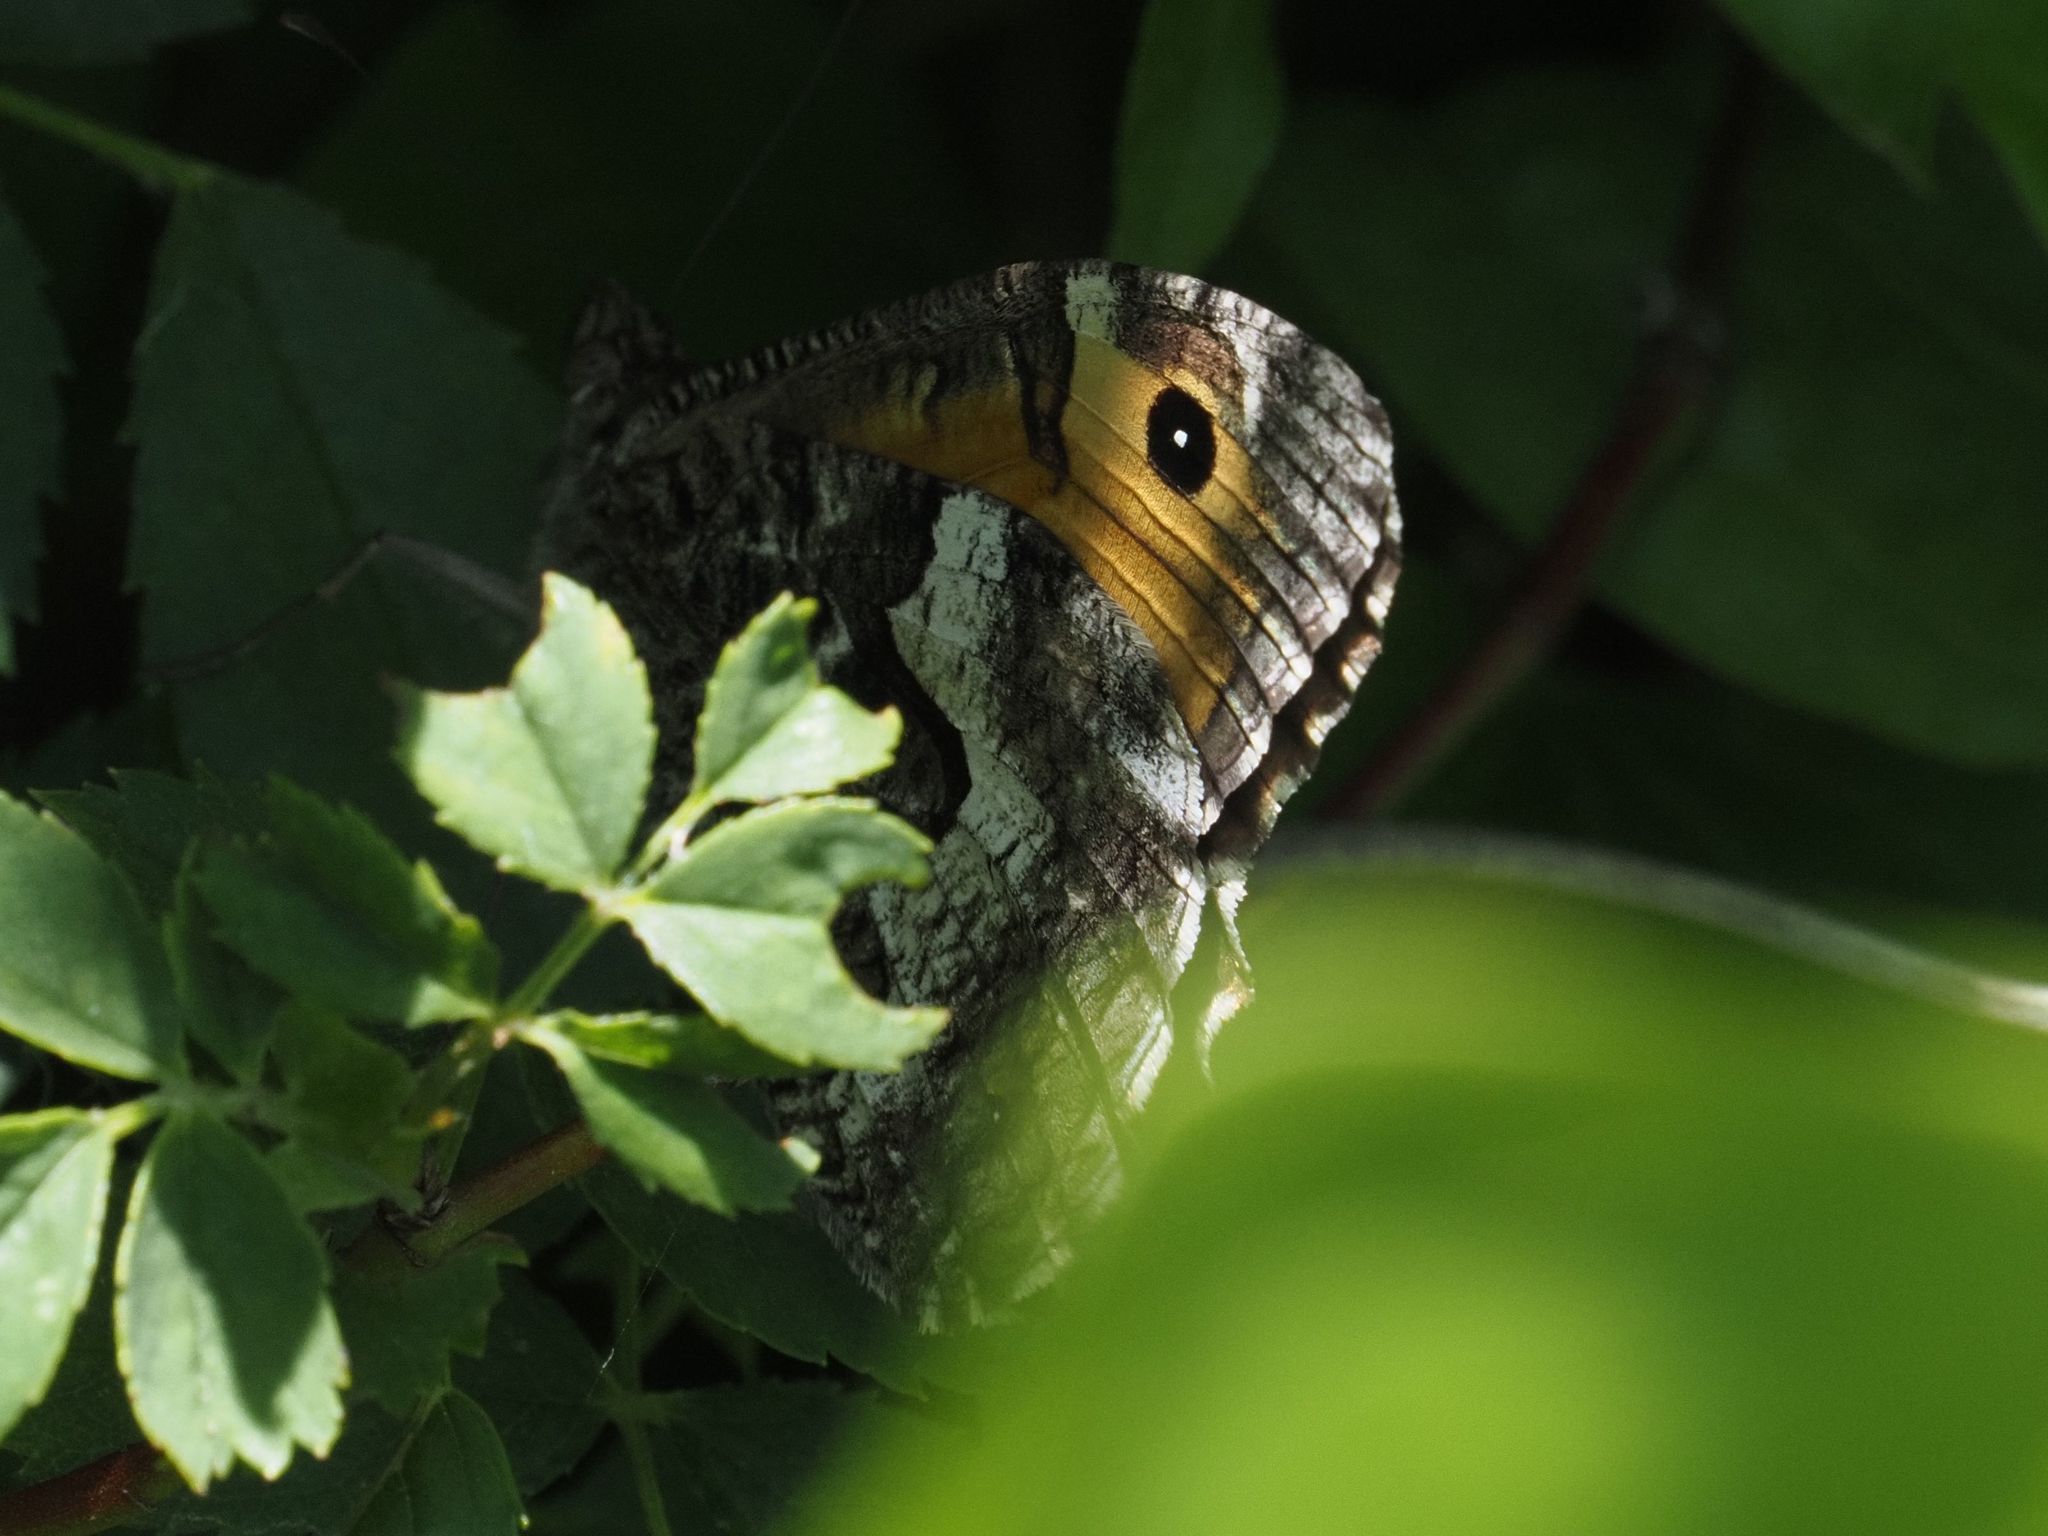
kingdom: Animalia
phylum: Arthropoda
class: Insecta
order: Lepidoptera
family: Nymphalidae
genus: Hipparchia
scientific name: Hipparchia semele
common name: Grayling
